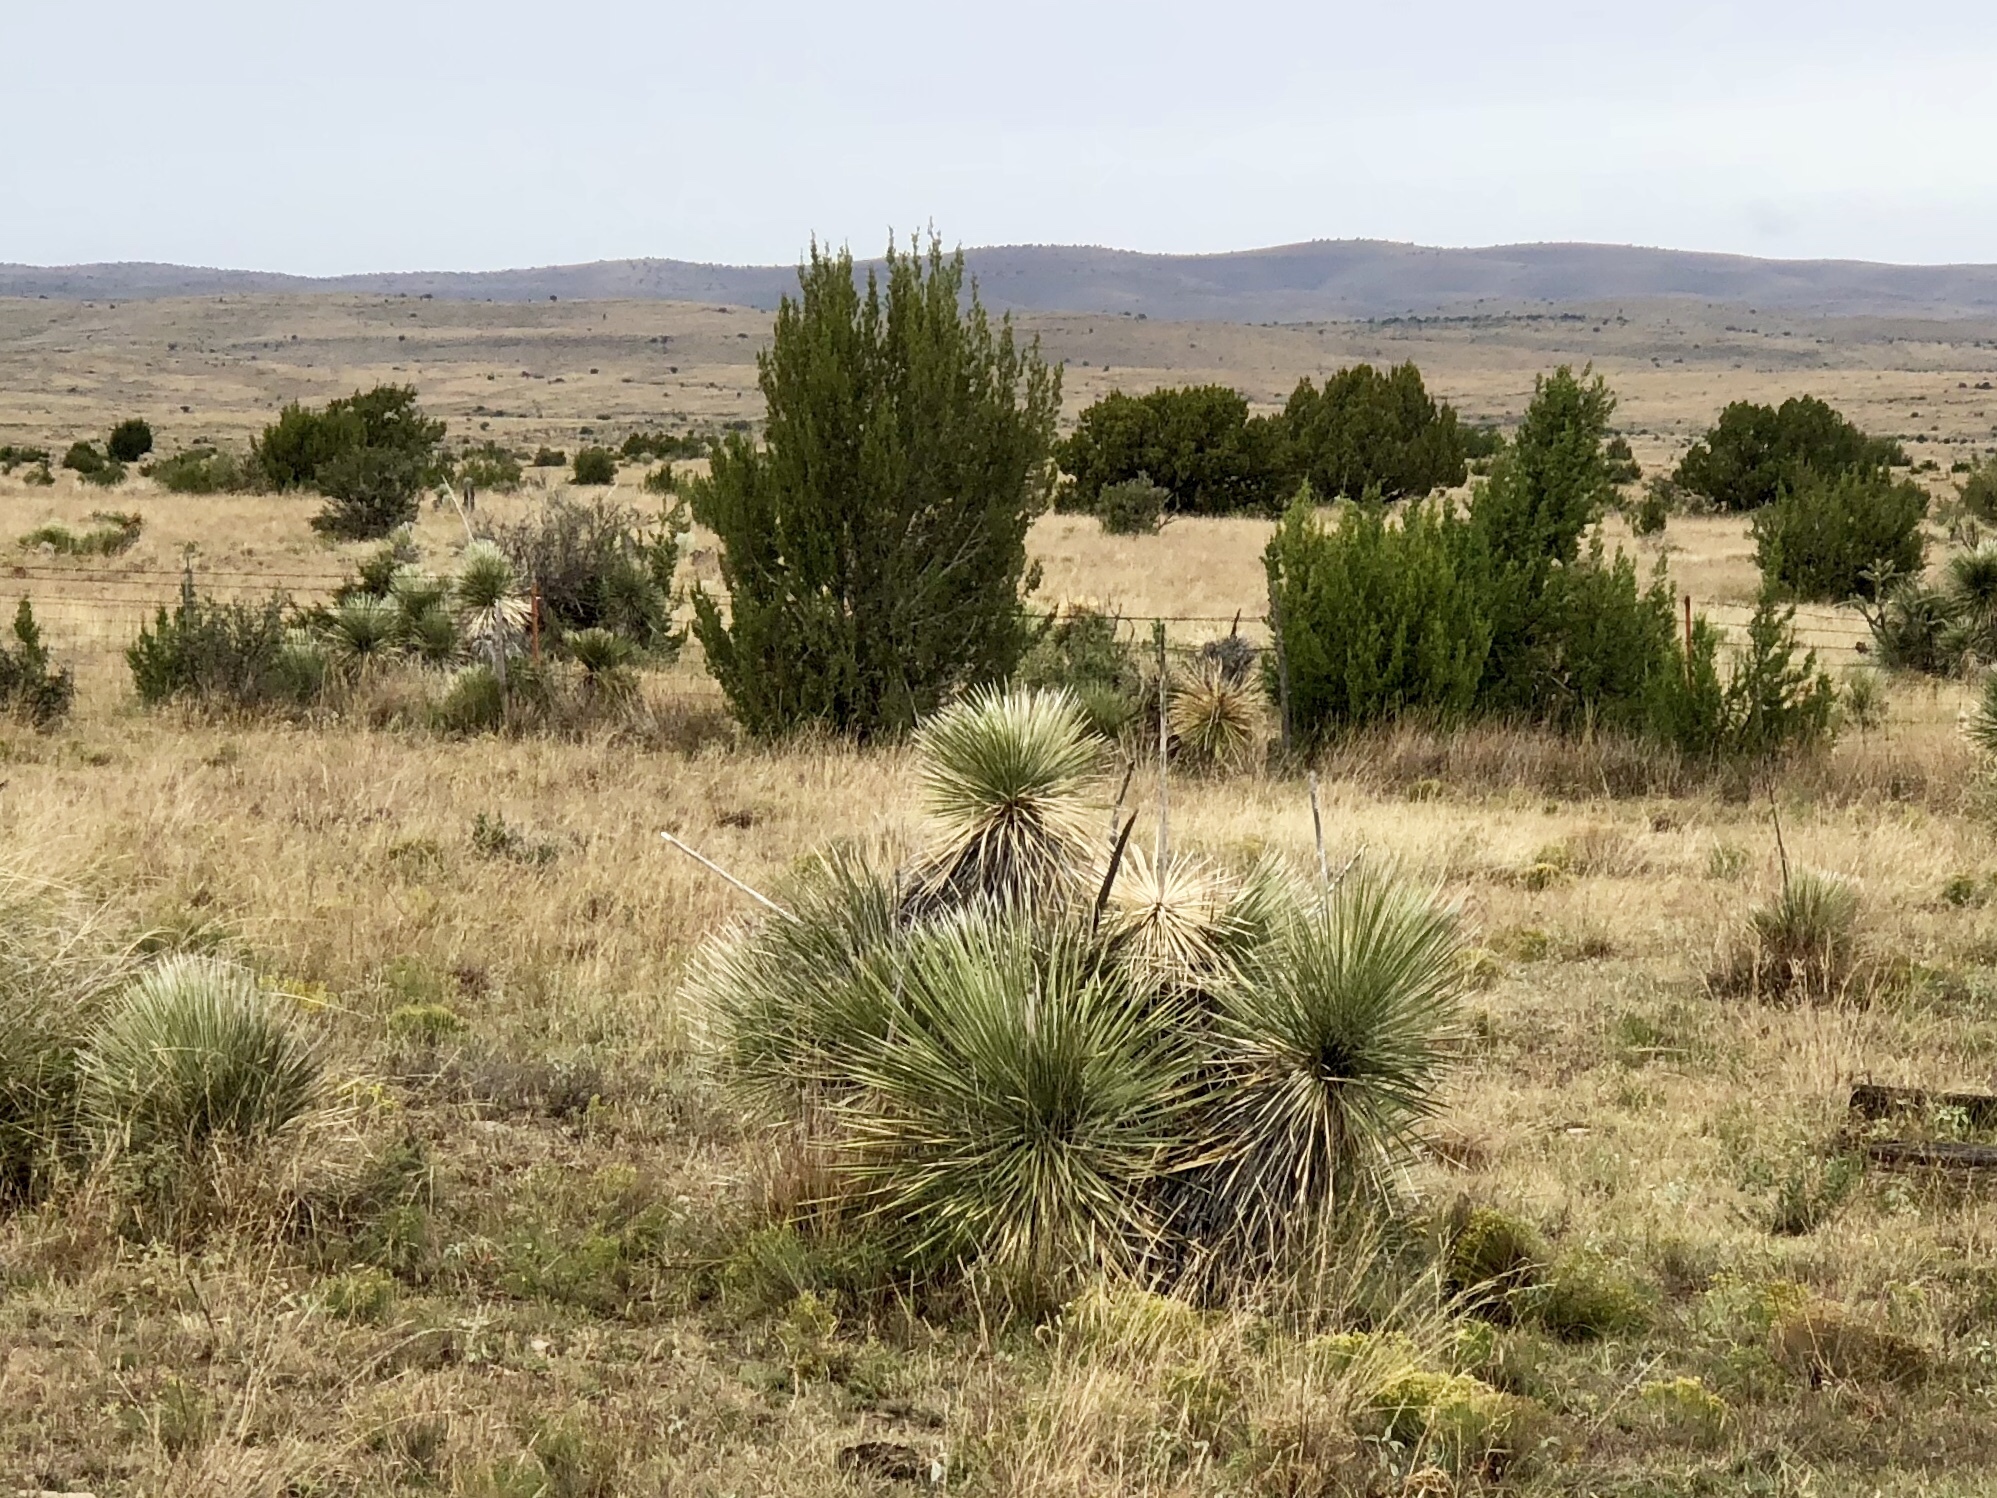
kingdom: Plantae
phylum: Tracheophyta
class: Liliopsida
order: Asparagales
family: Asparagaceae
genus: Yucca
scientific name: Yucca elata
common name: Palmella
